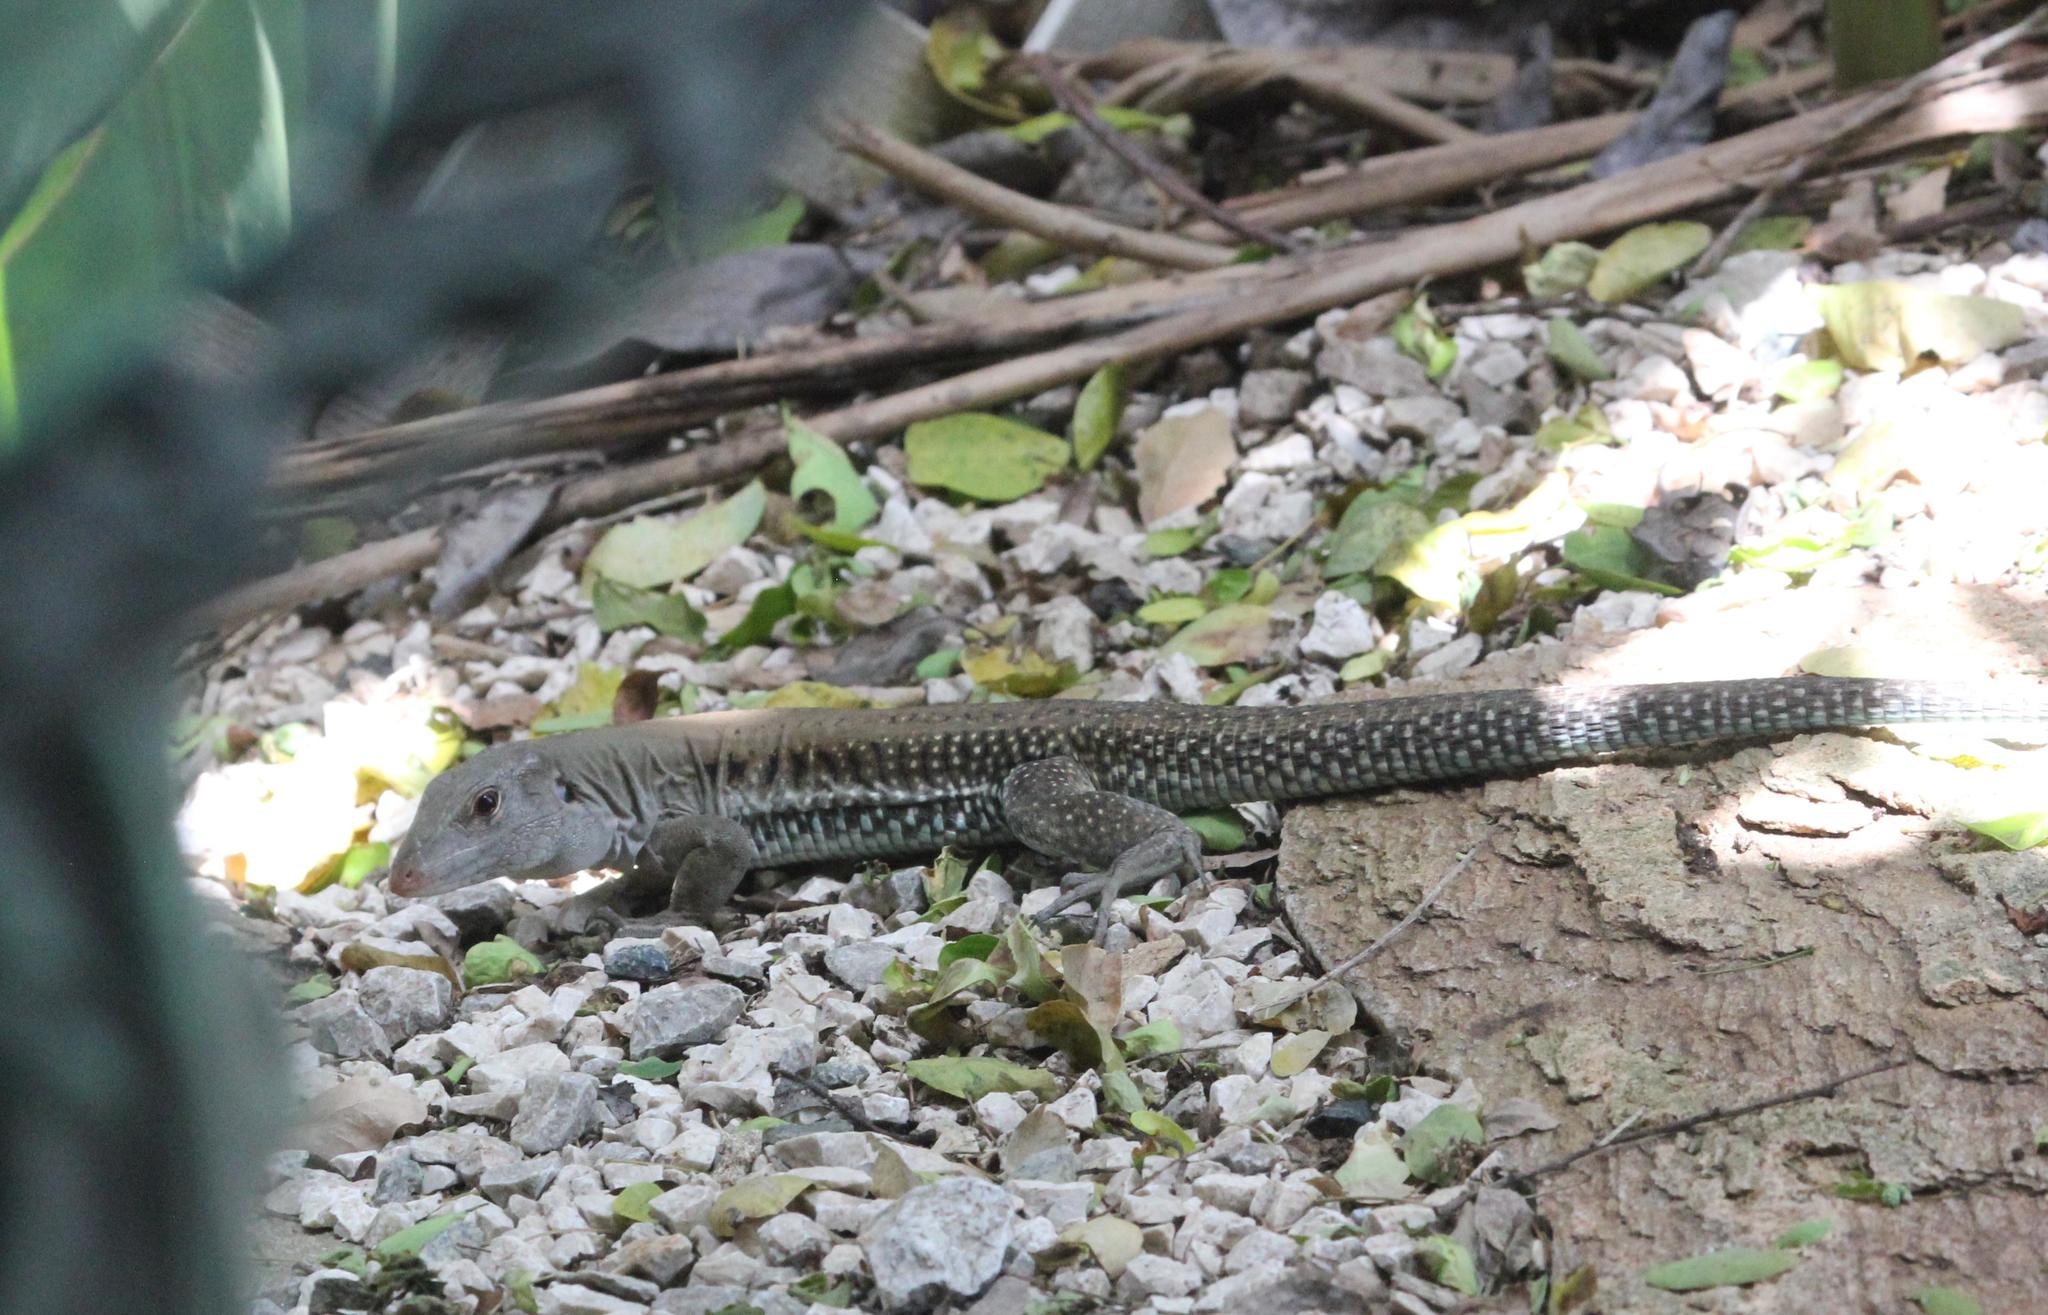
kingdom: Animalia
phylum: Chordata
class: Squamata
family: Teiidae
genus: Pholidoscelis
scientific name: Pholidoscelis exsul
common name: Common puerto rican ameiva
